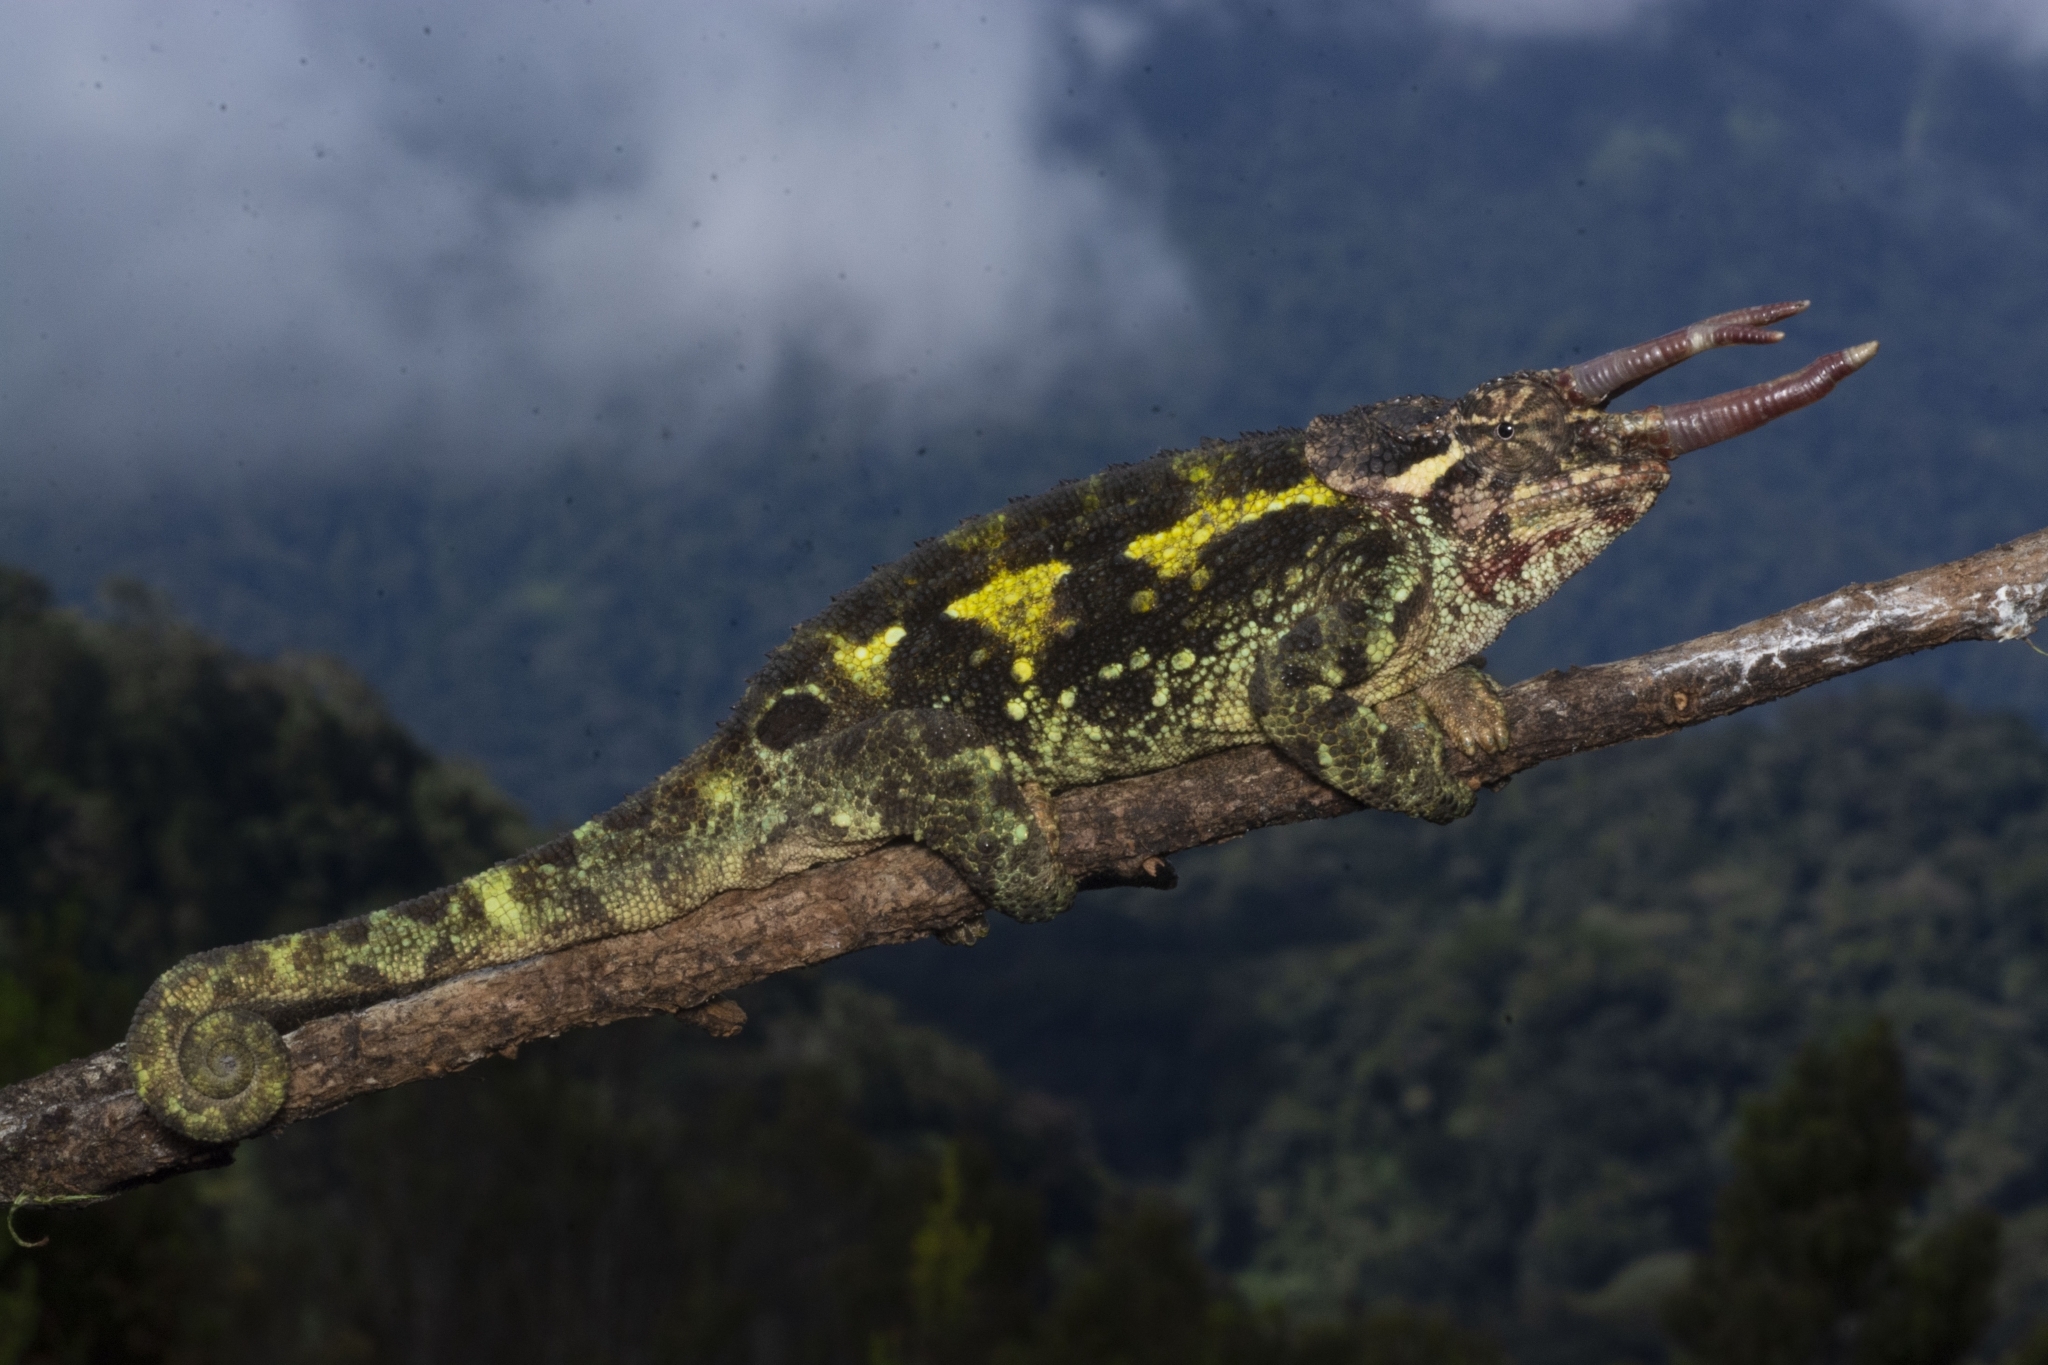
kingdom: Animalia
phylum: Chordata
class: Squamata
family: Chamaeleonidae
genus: Trioceros
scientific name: Trioceros werneri
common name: Wemer's chameleon
